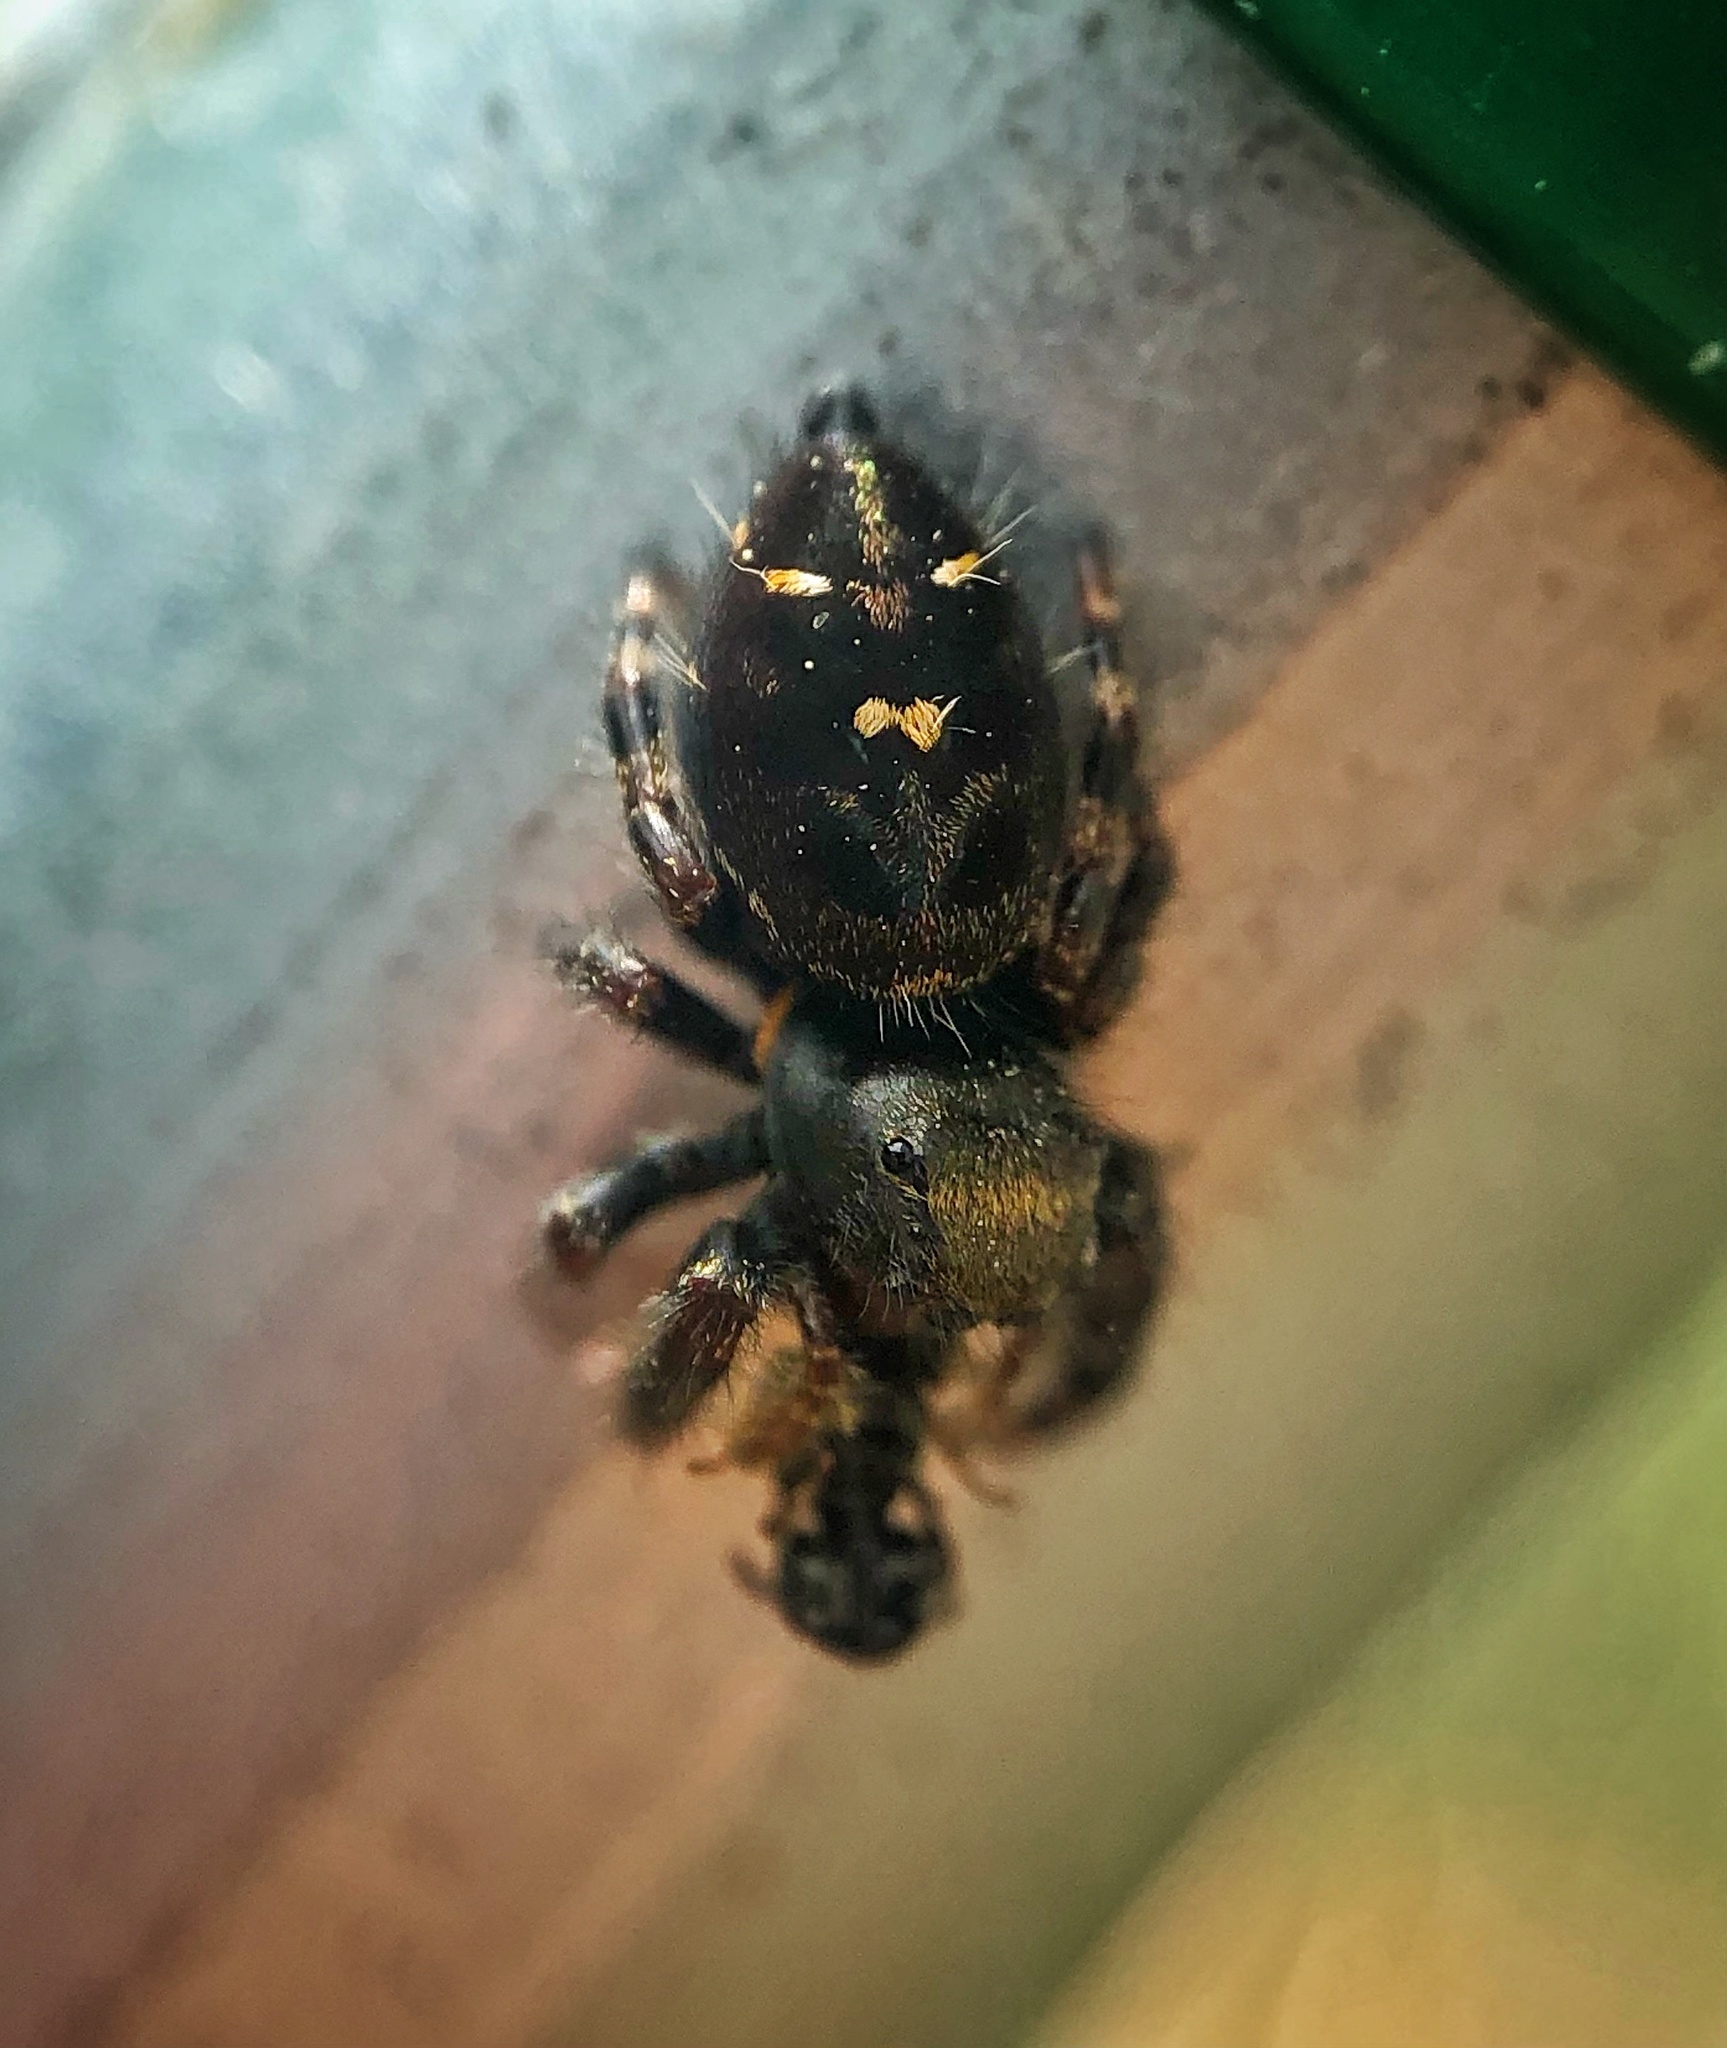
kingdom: Animalia
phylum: Arthropoda
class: Arachnida
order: Araneae
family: Salticidae
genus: Phidippus
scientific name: Phidippus audax
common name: Bold jumper
